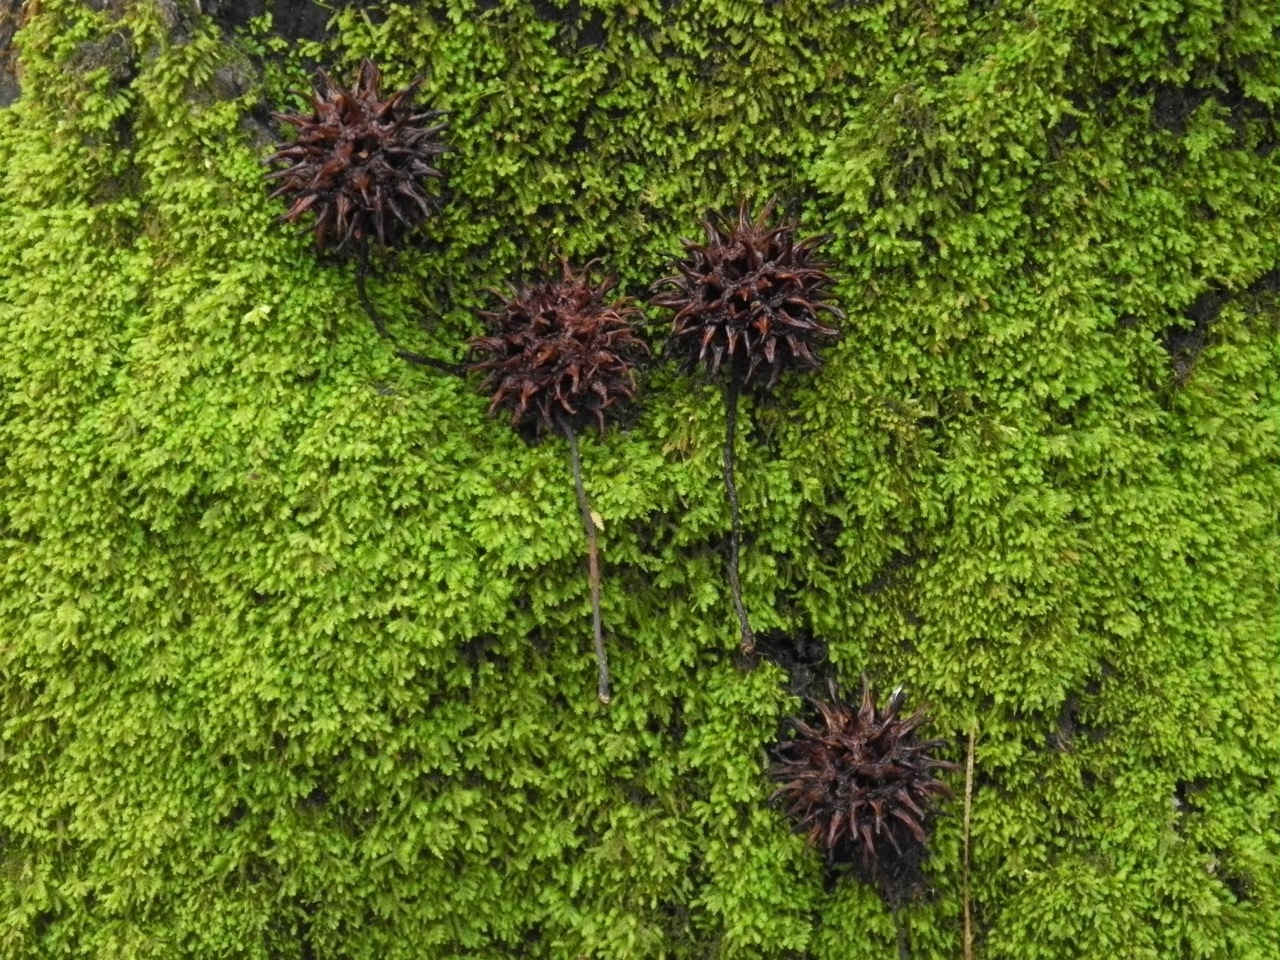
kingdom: Plantae
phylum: Tracheophyta
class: Magnoliopsida
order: Saxifragales
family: Altingiaceae
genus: Liquidambar
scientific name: Liquidambar styraciflua
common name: Sweet gum
